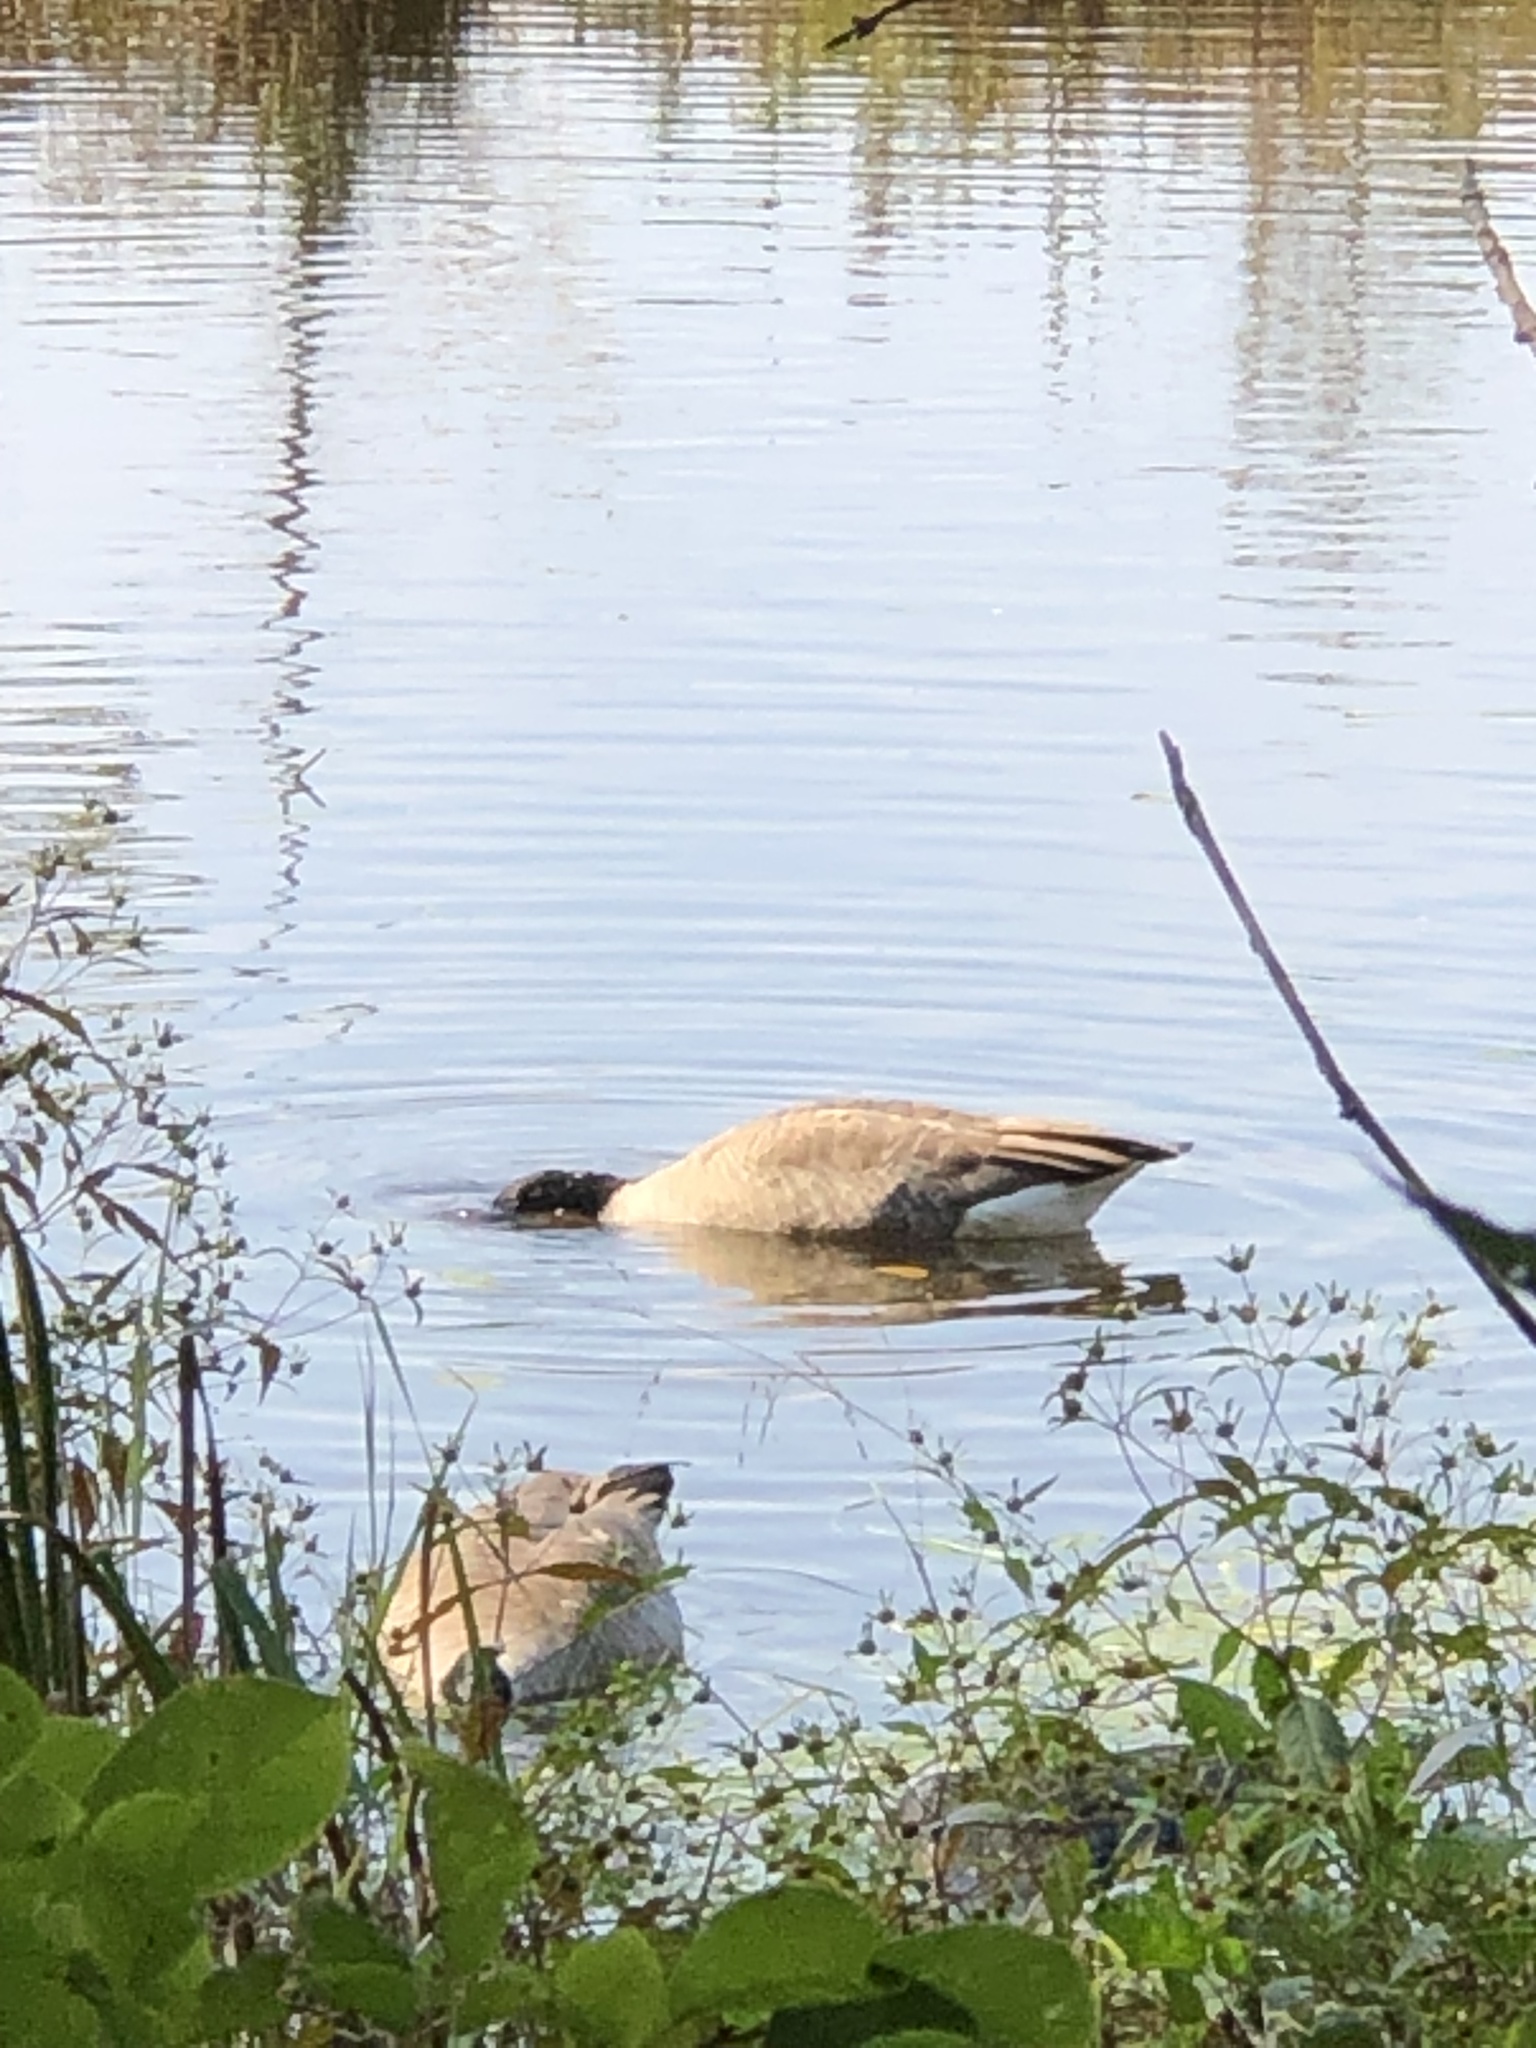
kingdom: Animalia
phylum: Chordata
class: Aves
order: Anseriformes
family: Anatidae
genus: Branta
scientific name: Branta canadensis
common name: Canada goose
